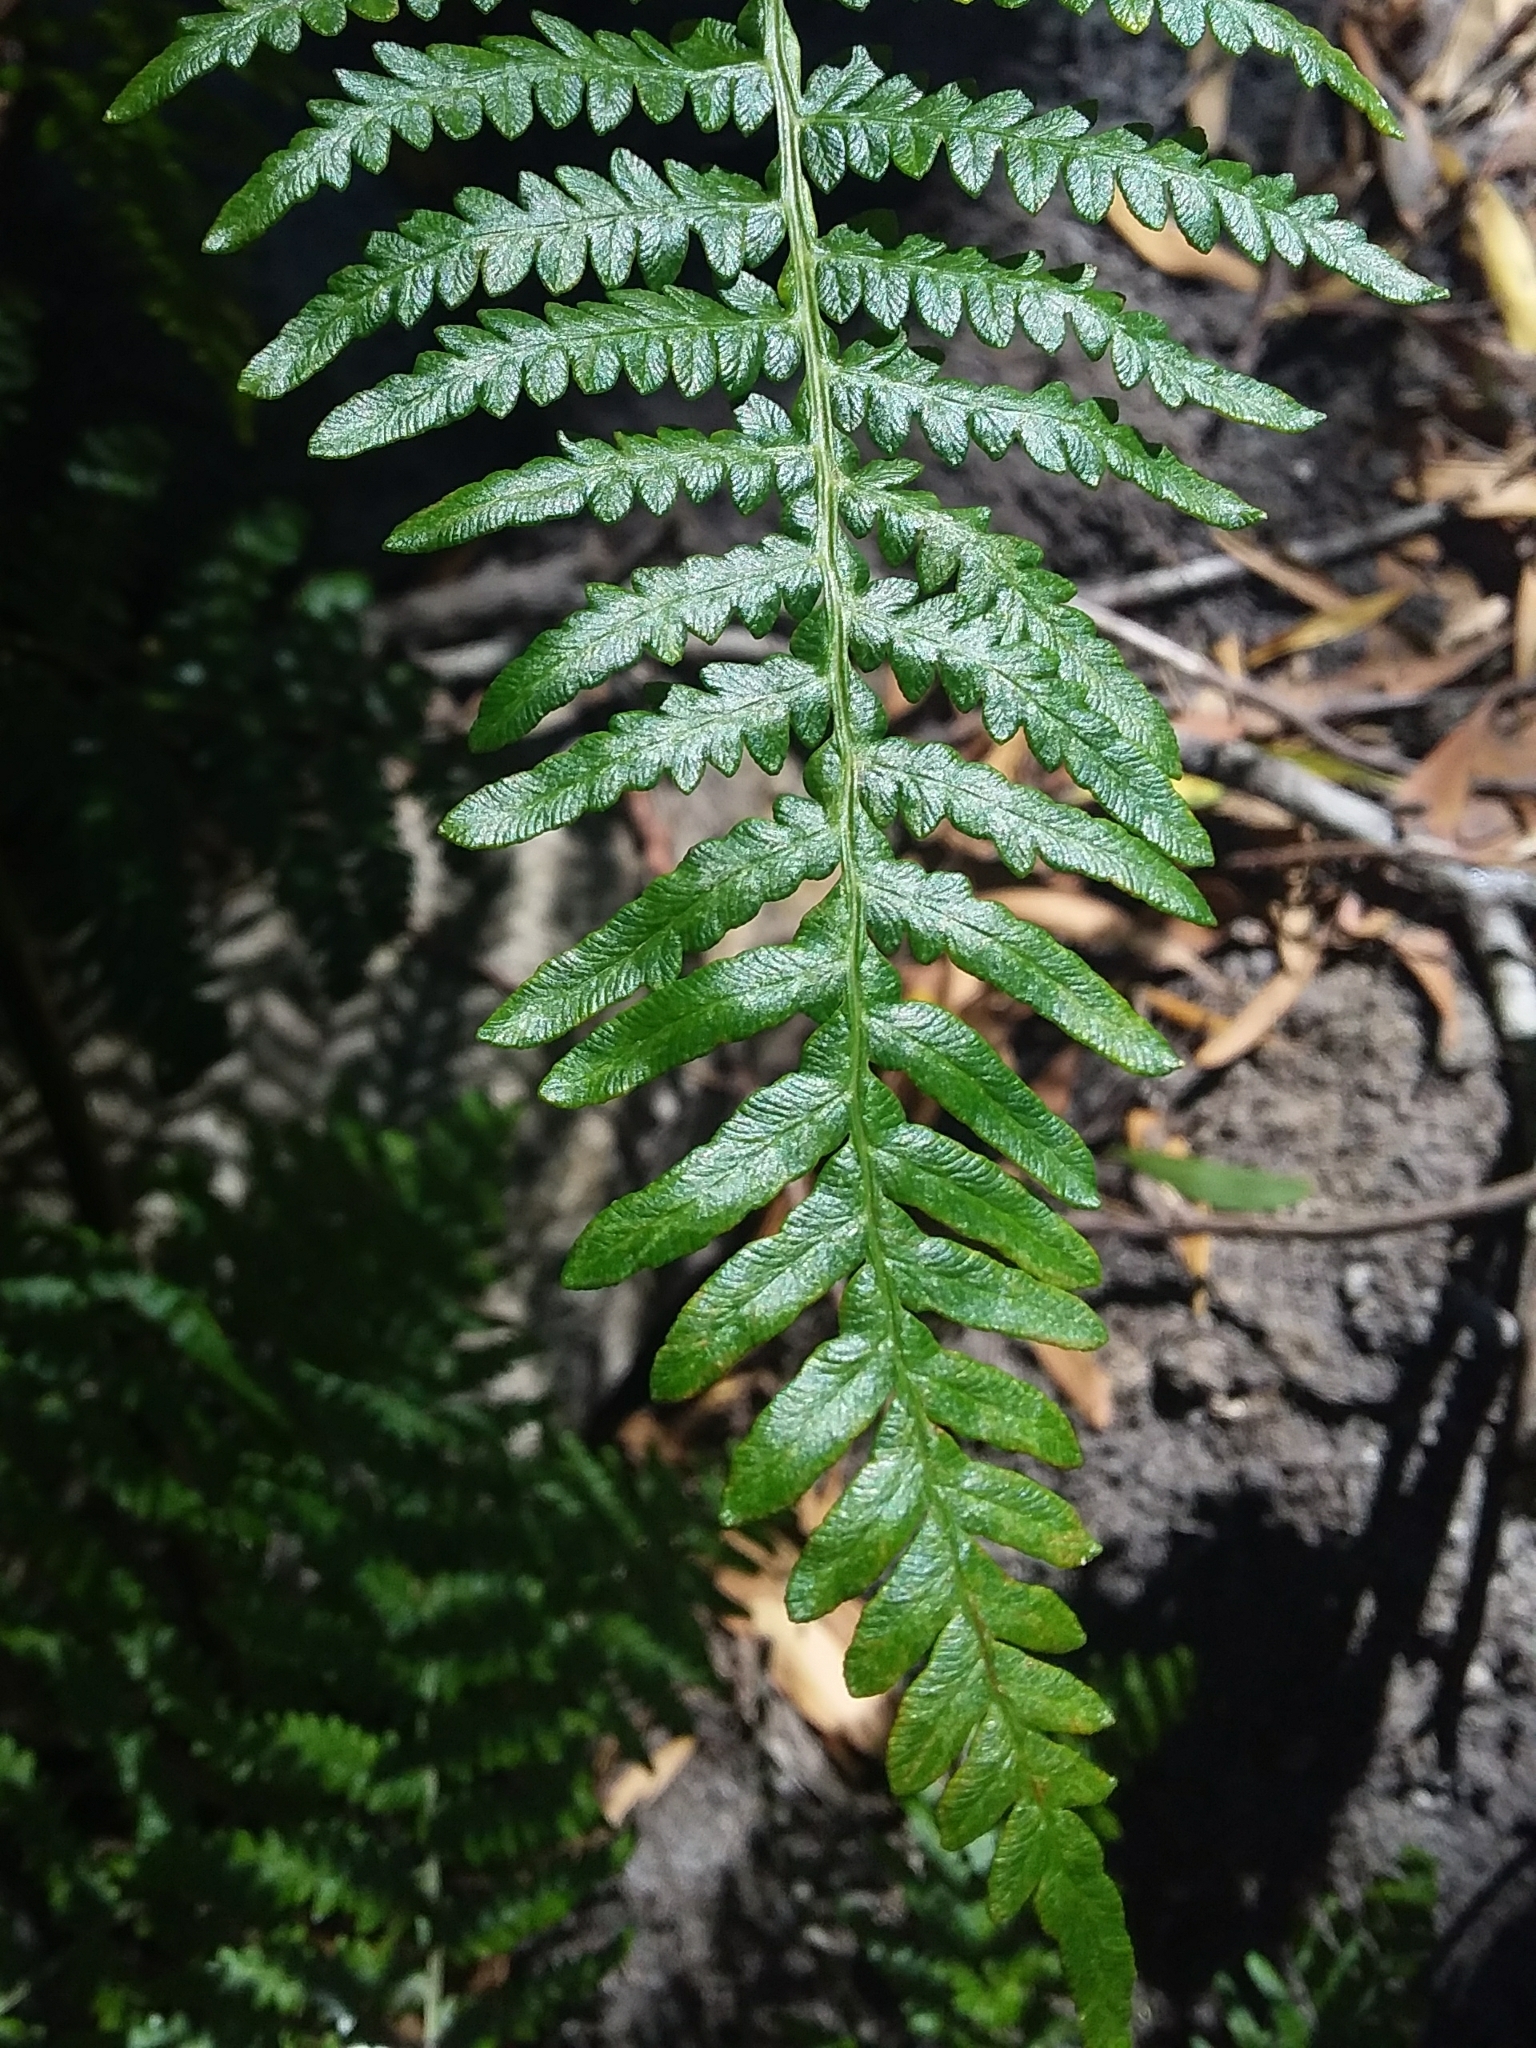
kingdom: Plantae
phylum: Tracheophyta
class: Polypodiopsida
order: Polypodiales
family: Dennstaedtiaceae
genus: Pteridium
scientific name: Pteridium esculentum
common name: Bracken fern
